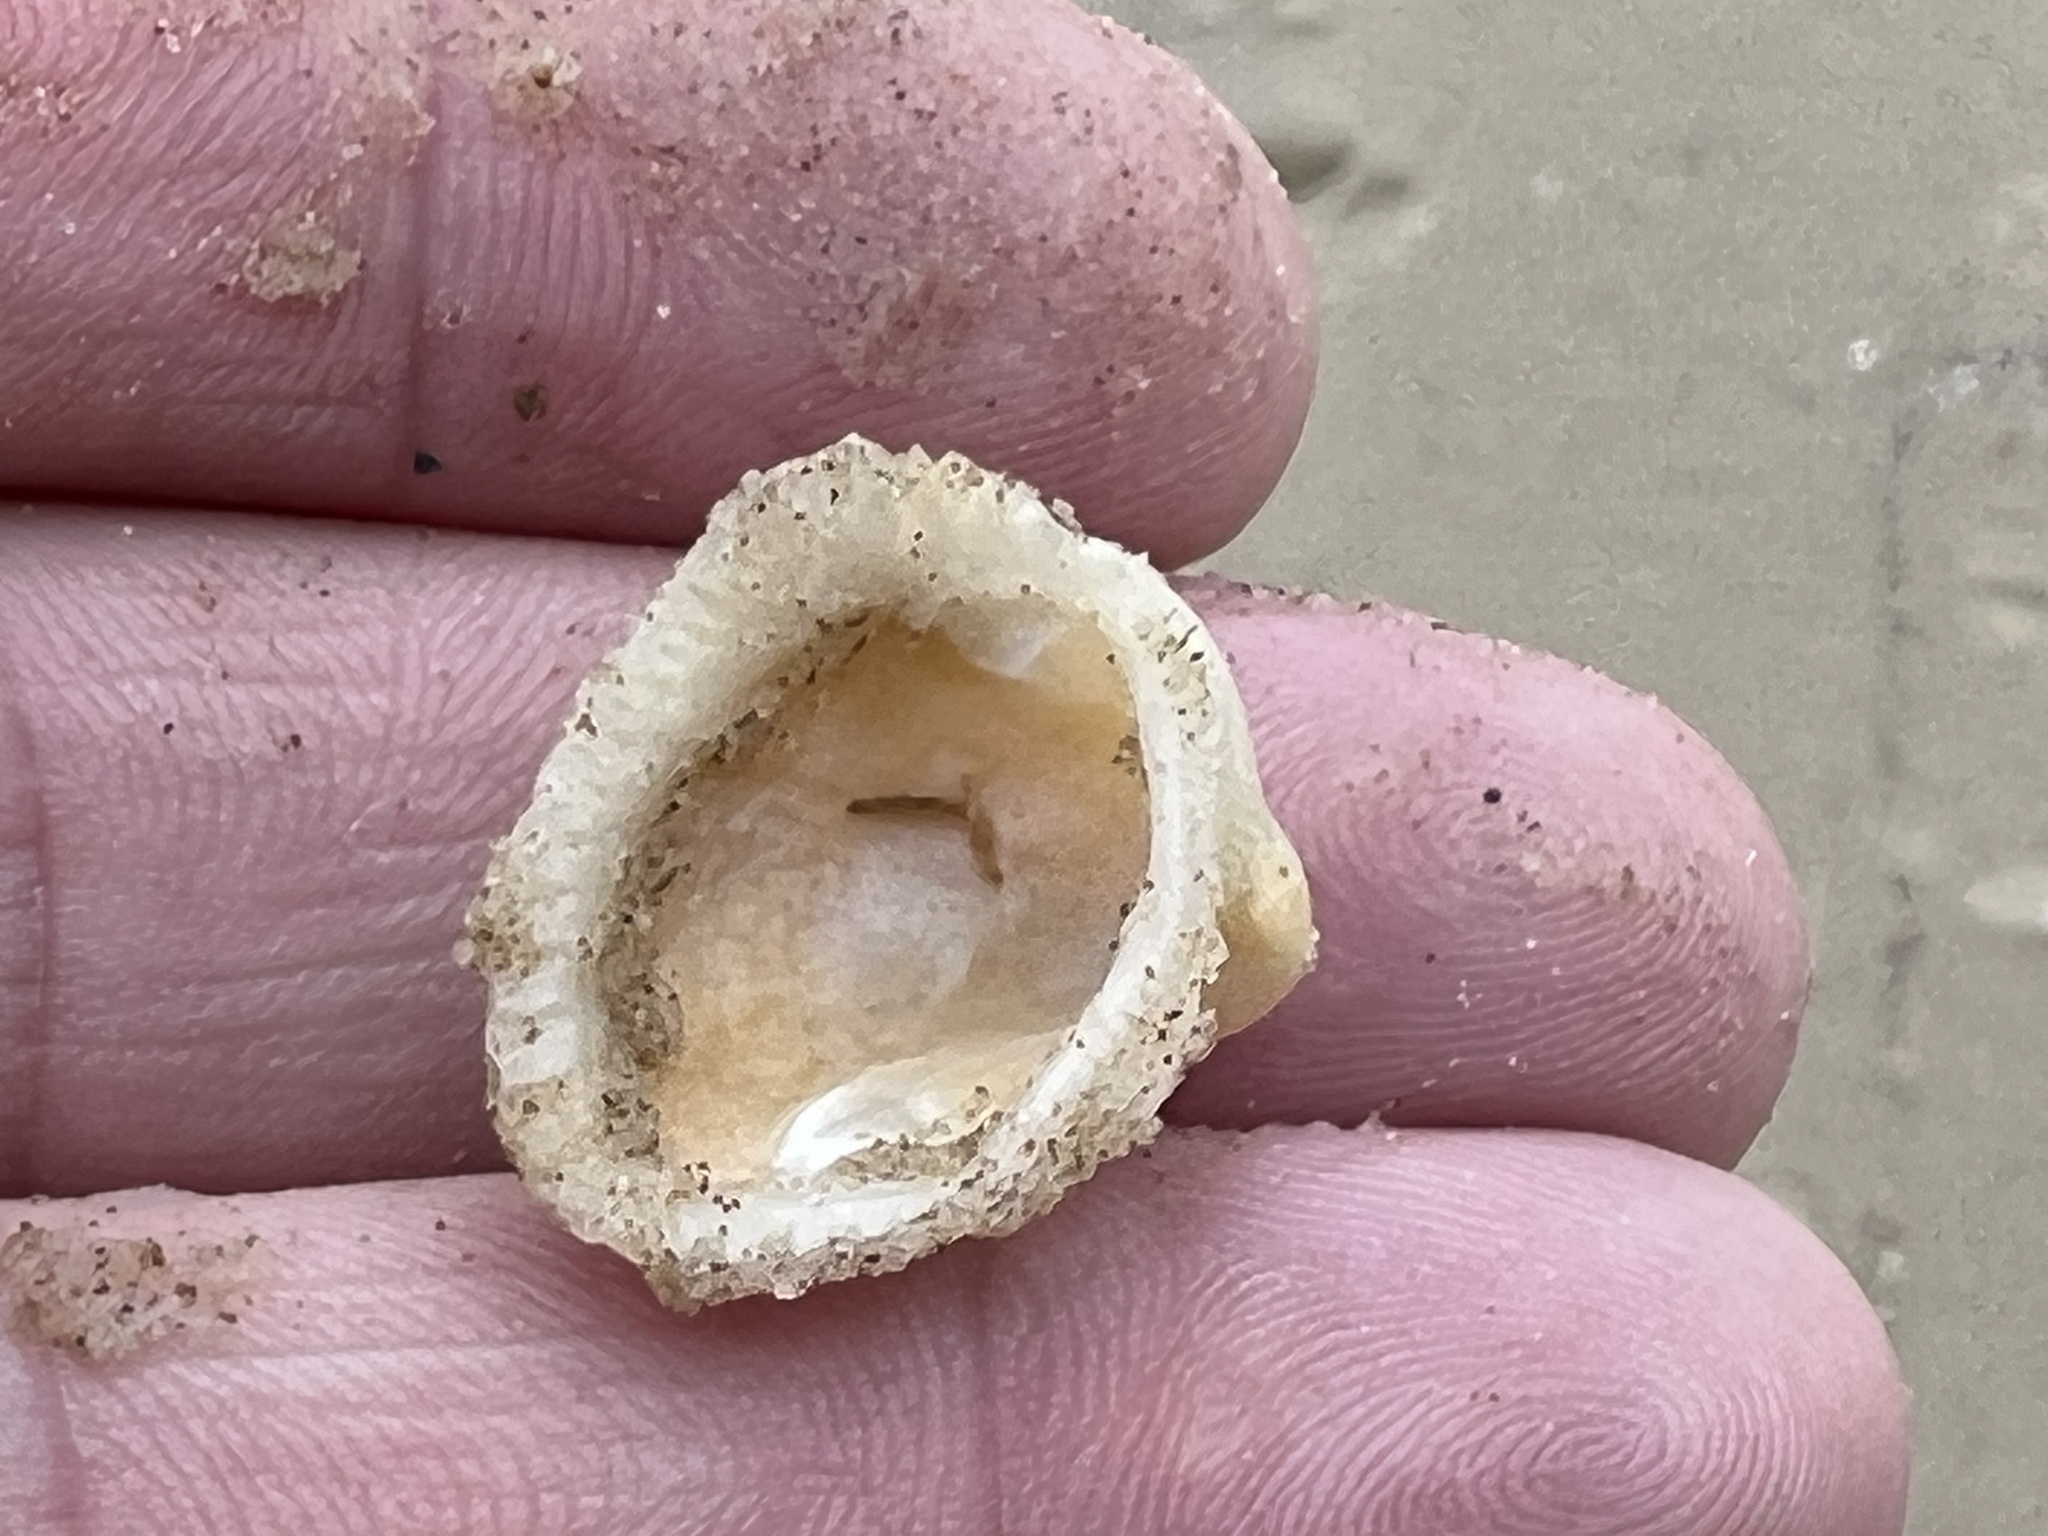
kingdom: Animalia
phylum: Mollusca
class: Bivalvia
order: Arcida
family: Noetiidae
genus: Noetia
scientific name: Noetia ponderosa
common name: Ponderous ark
